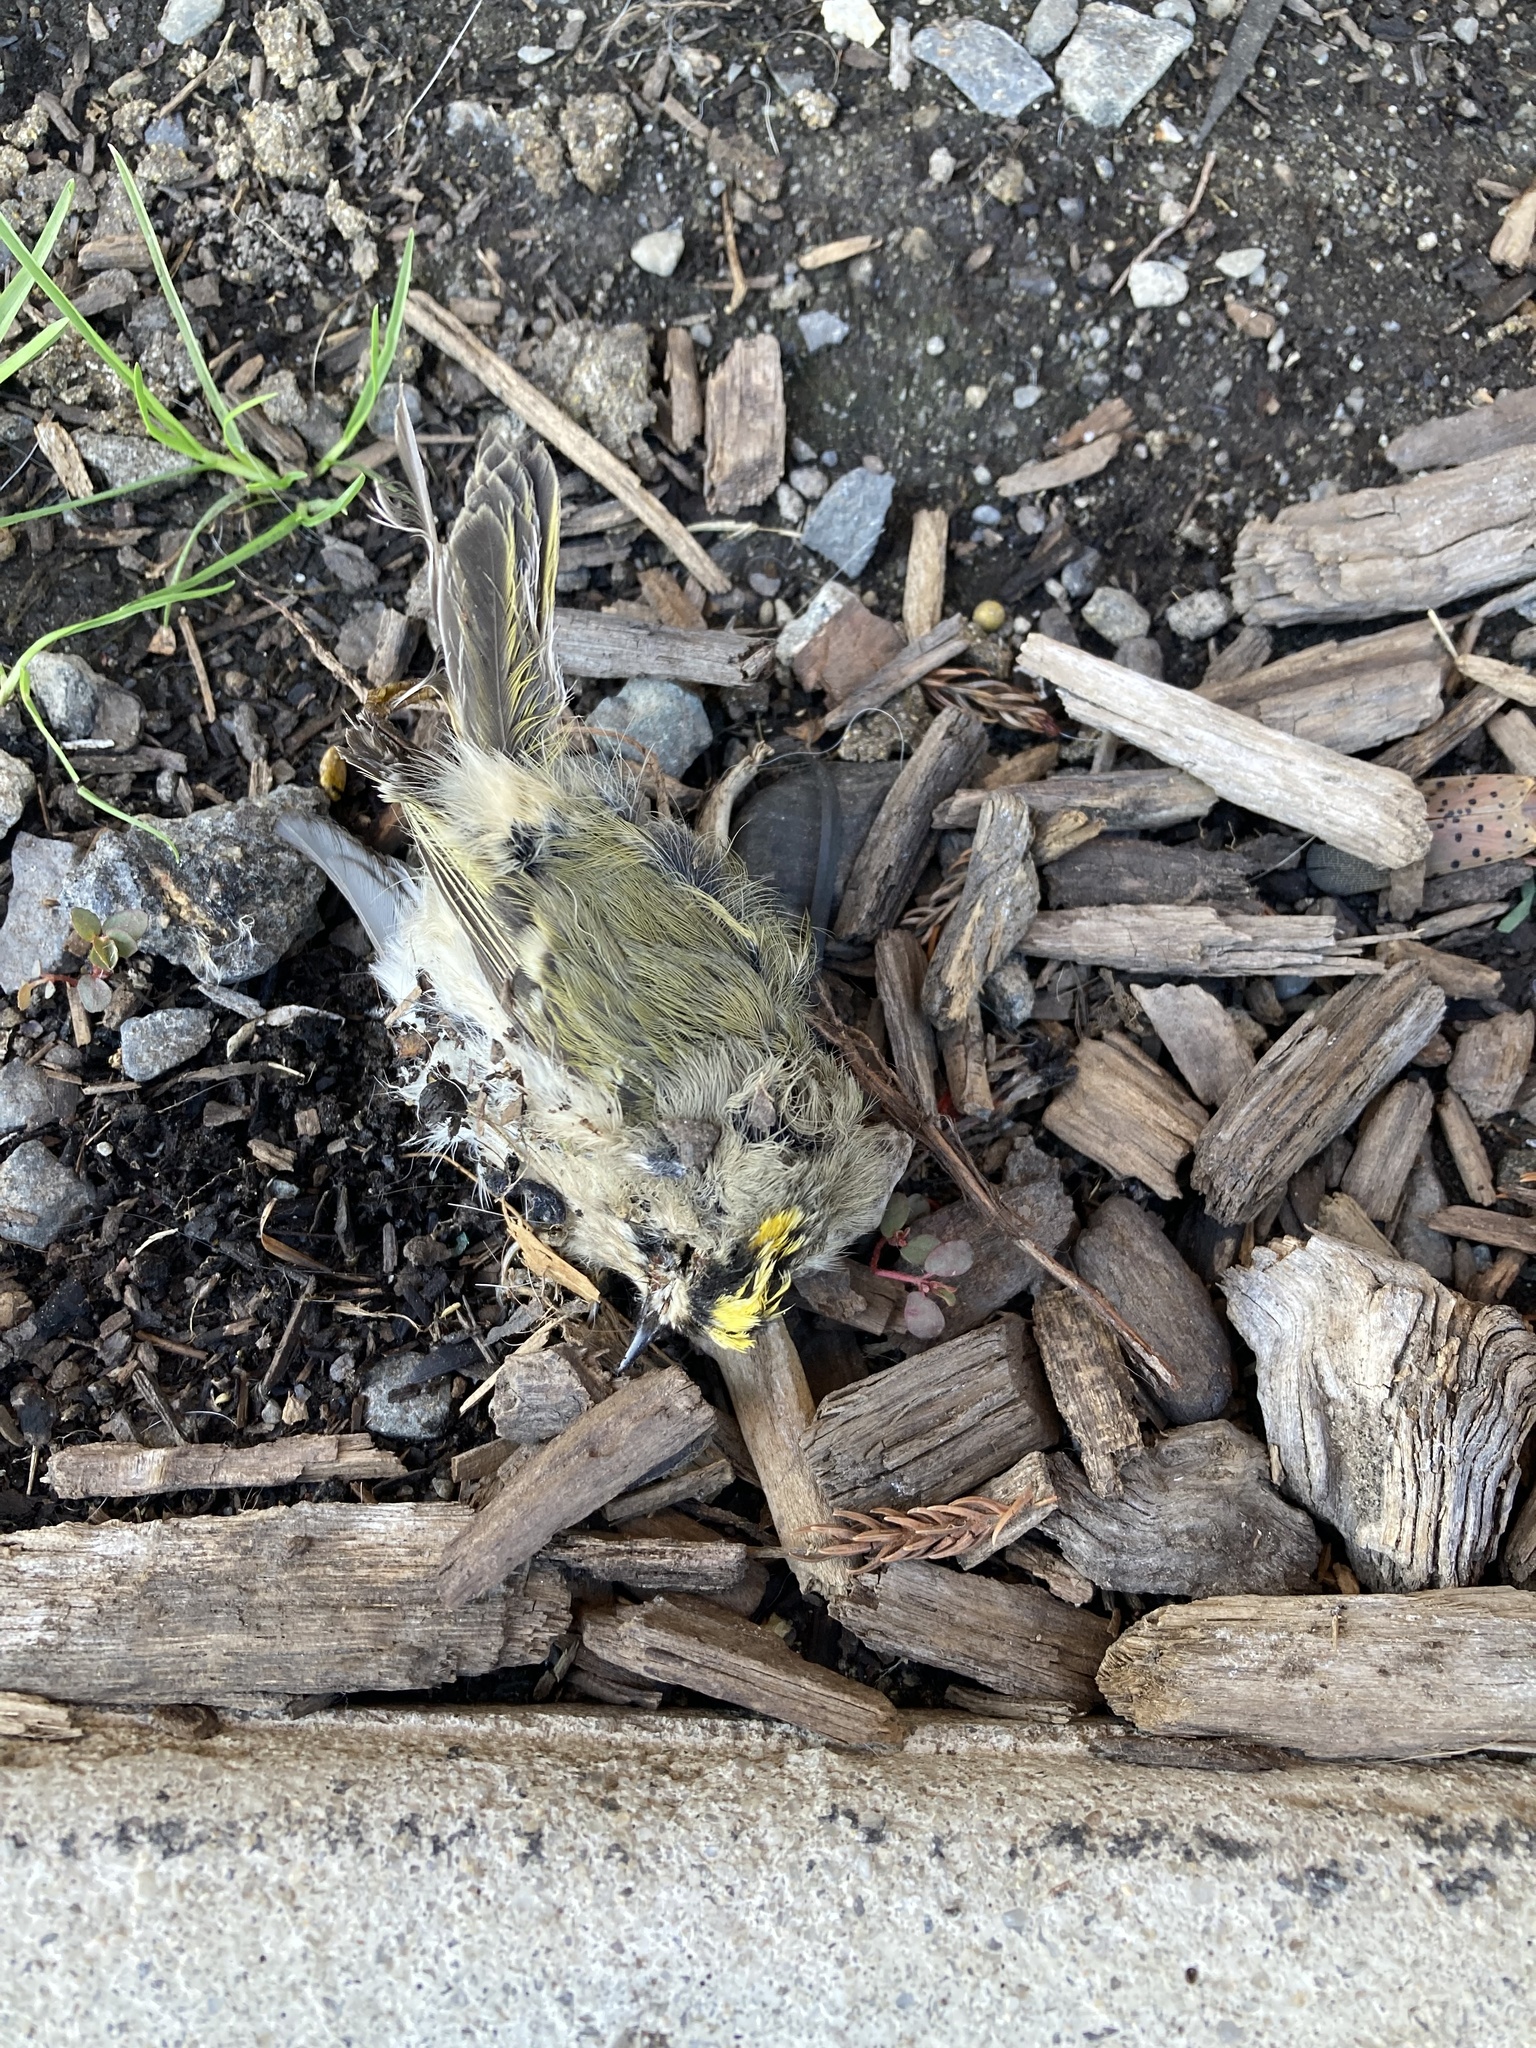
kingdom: Animalia
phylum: Chordata
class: Aves
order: Passeriformes
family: Regulidae
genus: Regulus
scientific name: Regulus satrapa
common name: Golden-crowned kinglet
